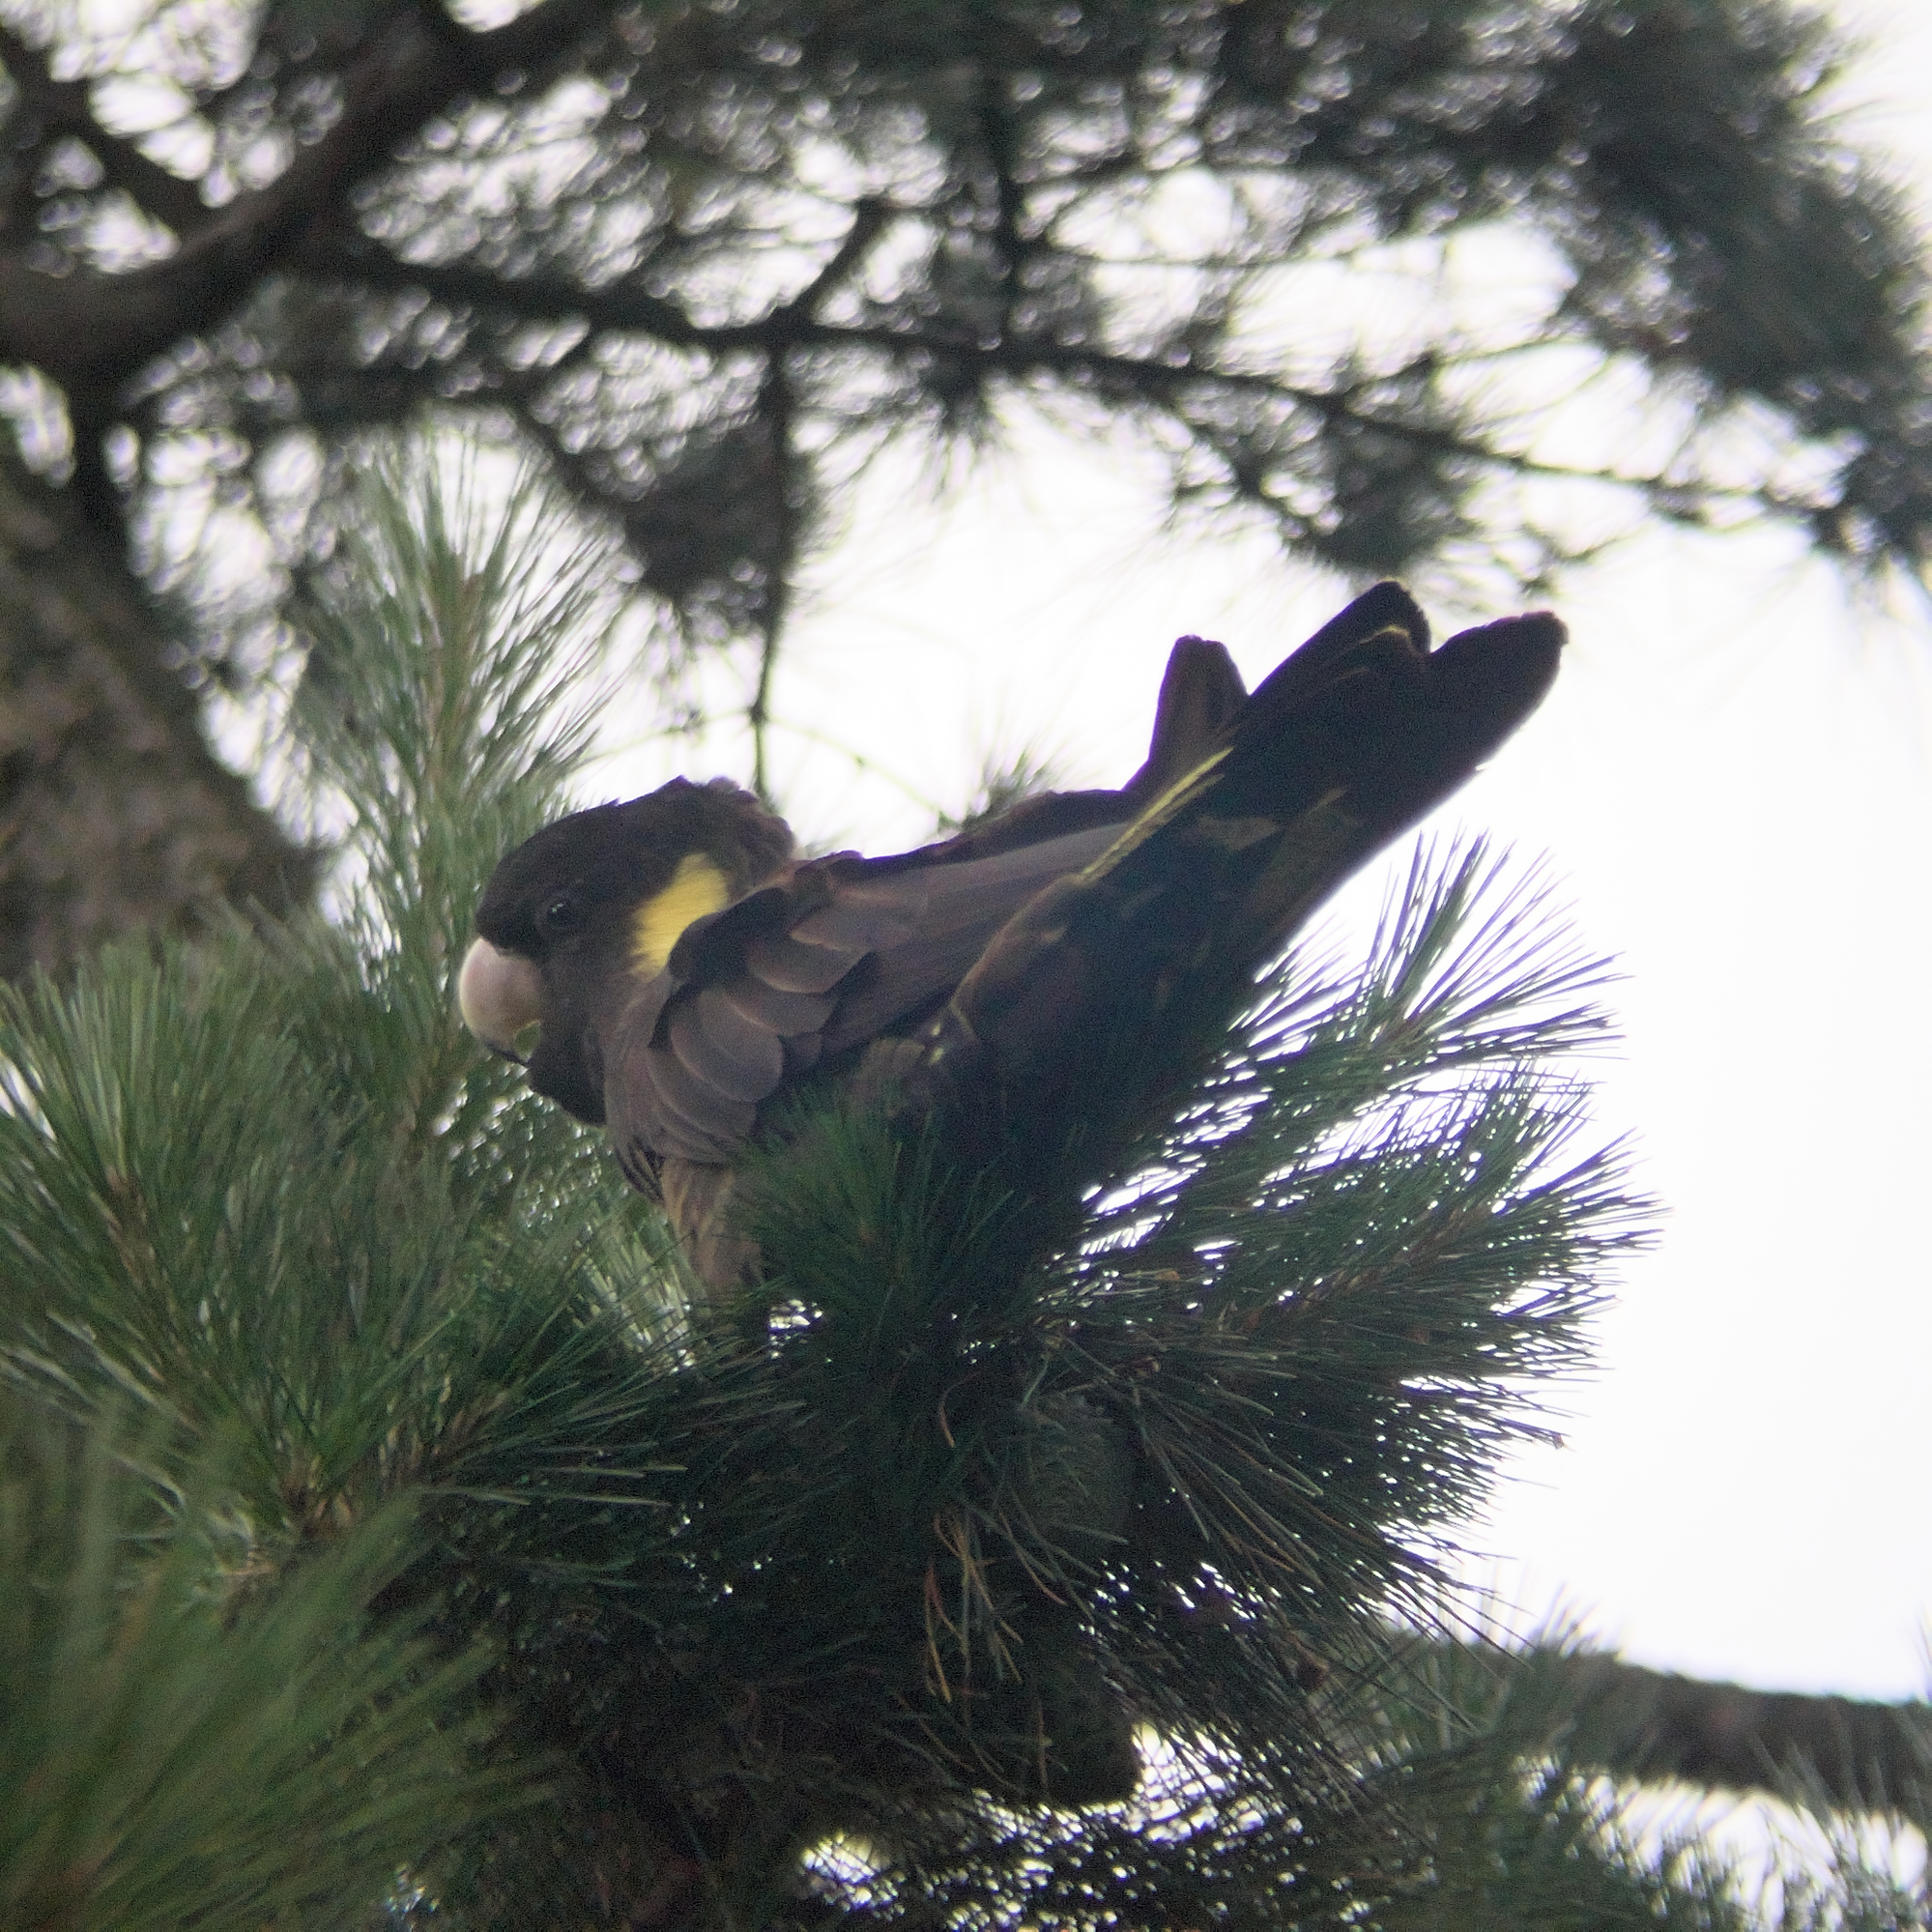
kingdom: Animalia
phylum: Chordata
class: Aves
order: Psittaciformes
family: Cacatuidae
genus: Zanda
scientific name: Zanda funerea
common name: Yellow-tailed black-cockatoo
